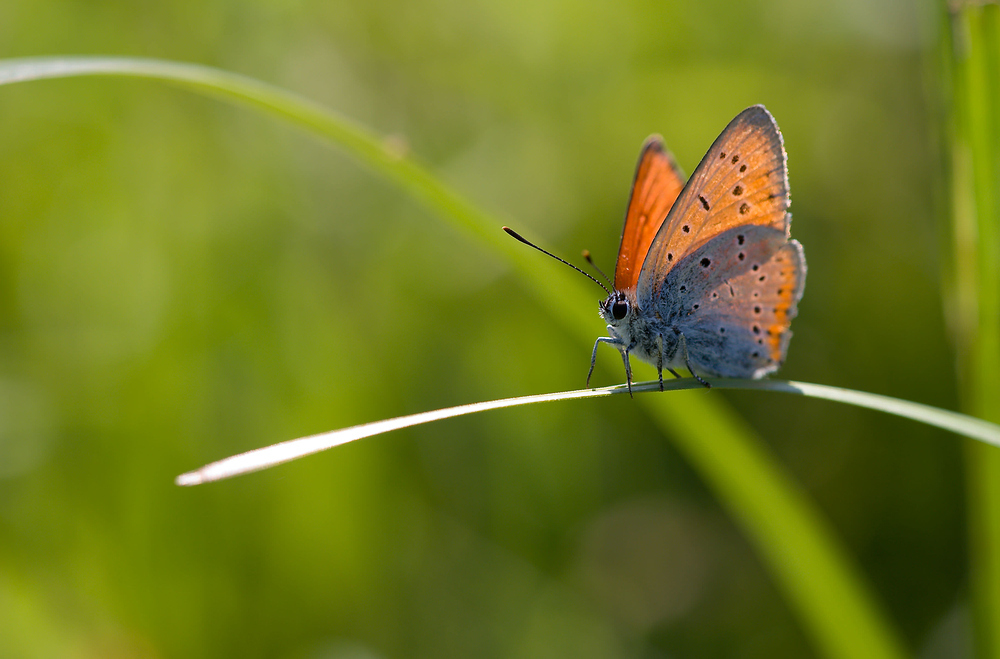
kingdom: Animalia
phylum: Arthropoda
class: Insecta
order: Lepidoptera
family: Lycaenidae
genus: Lycaena
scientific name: Lycaena dispar
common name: Large copper
